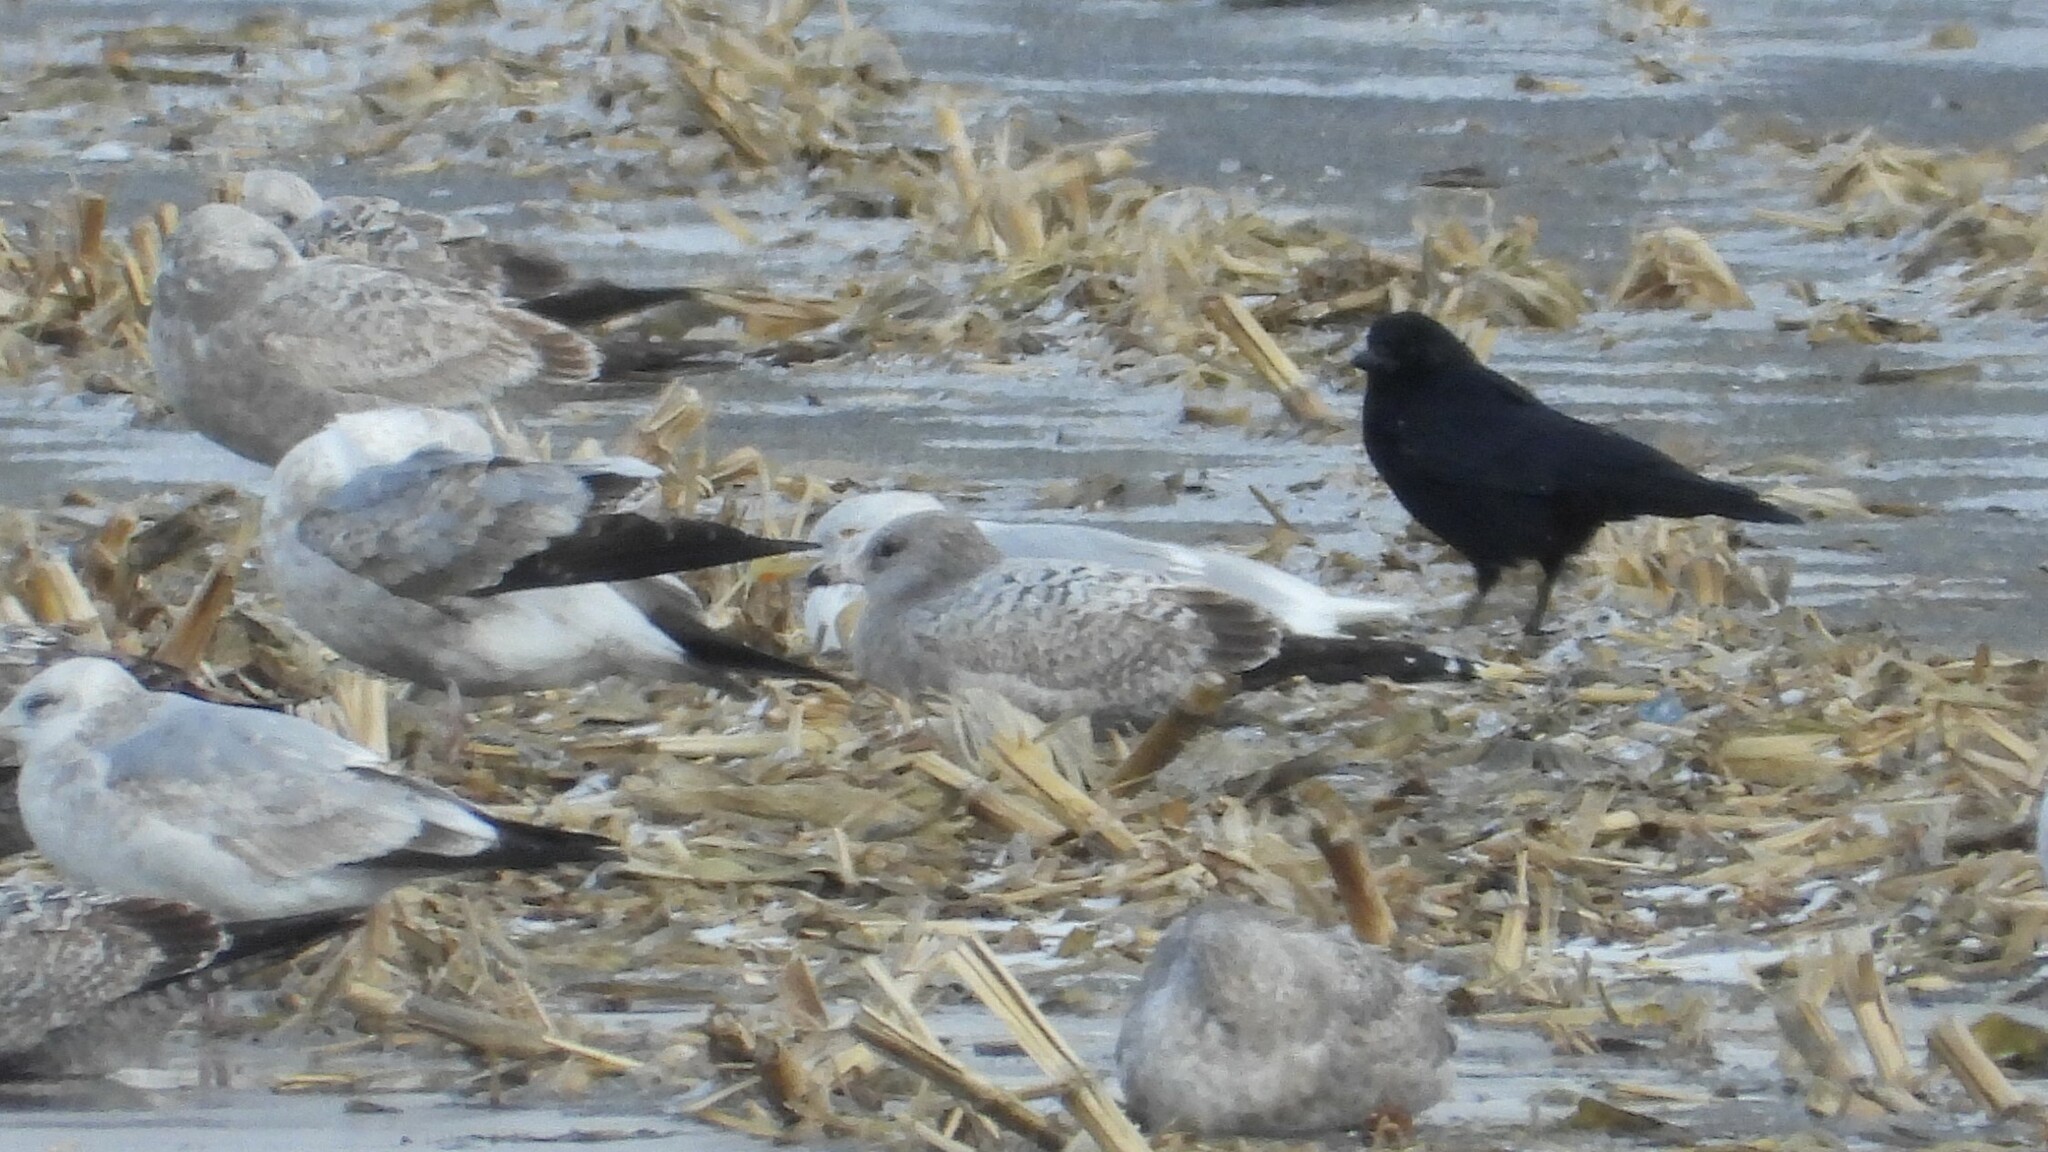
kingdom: Animalia
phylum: Chordata
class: Aves
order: Charadriiformes
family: Laridae
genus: Larus
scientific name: Larus hyperboreus
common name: Glaucous gull
